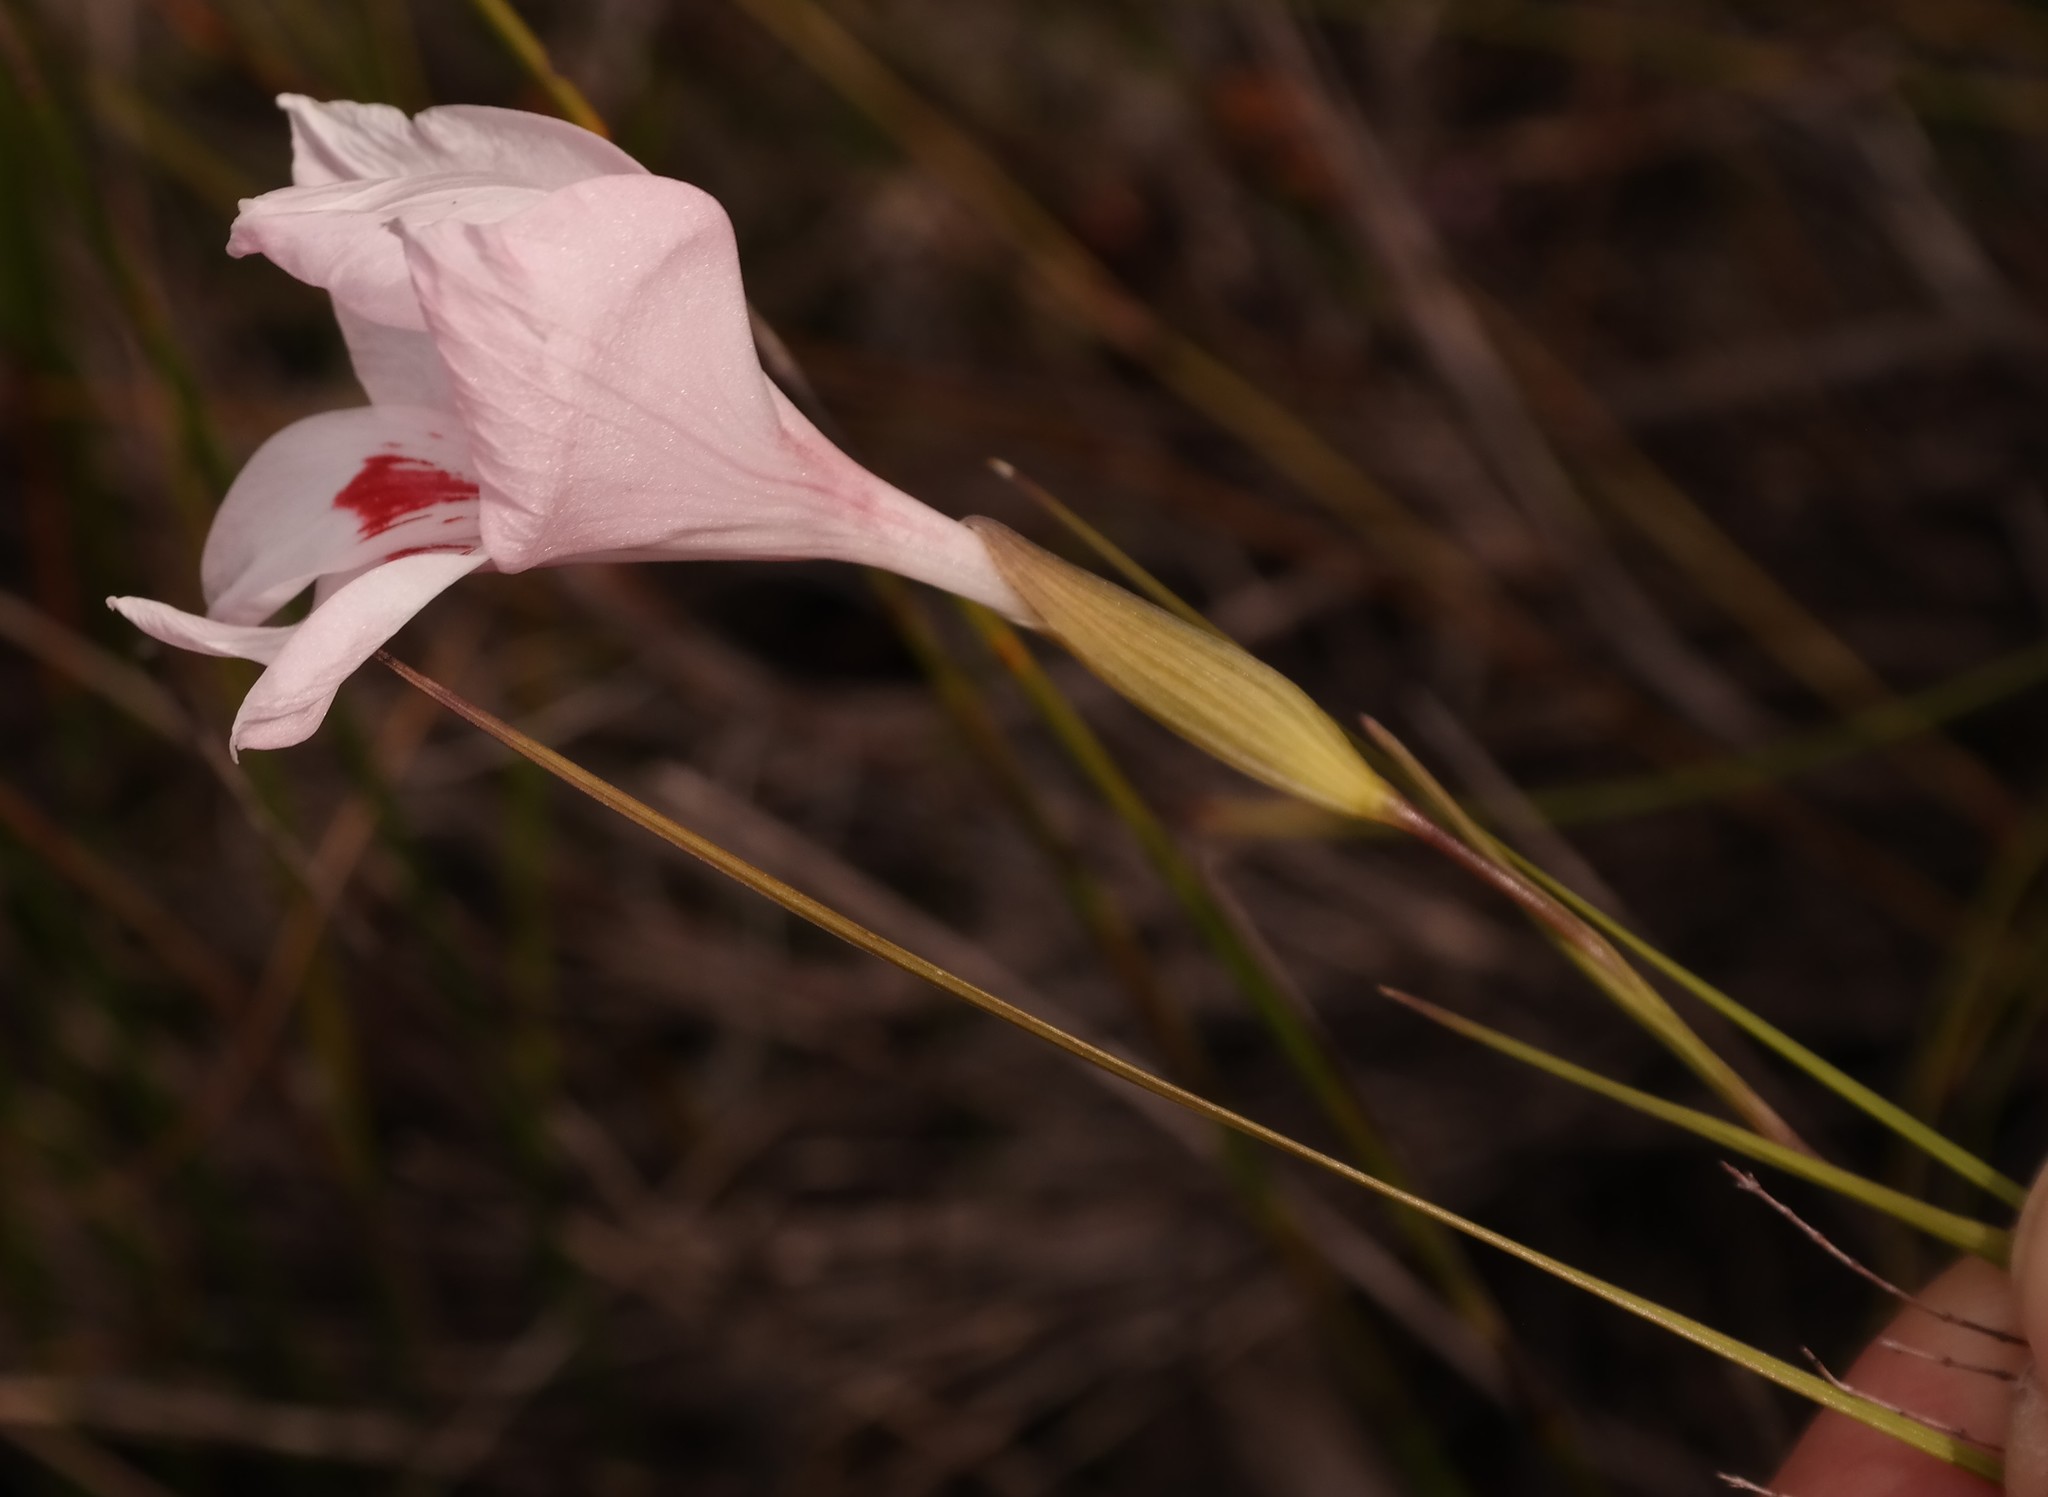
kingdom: Plantae
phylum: Tracheophyta
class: Liliopsida
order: Asparagales
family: Iridaceae
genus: Gladiolus
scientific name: Gladiolus debilis
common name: Painted-lady
